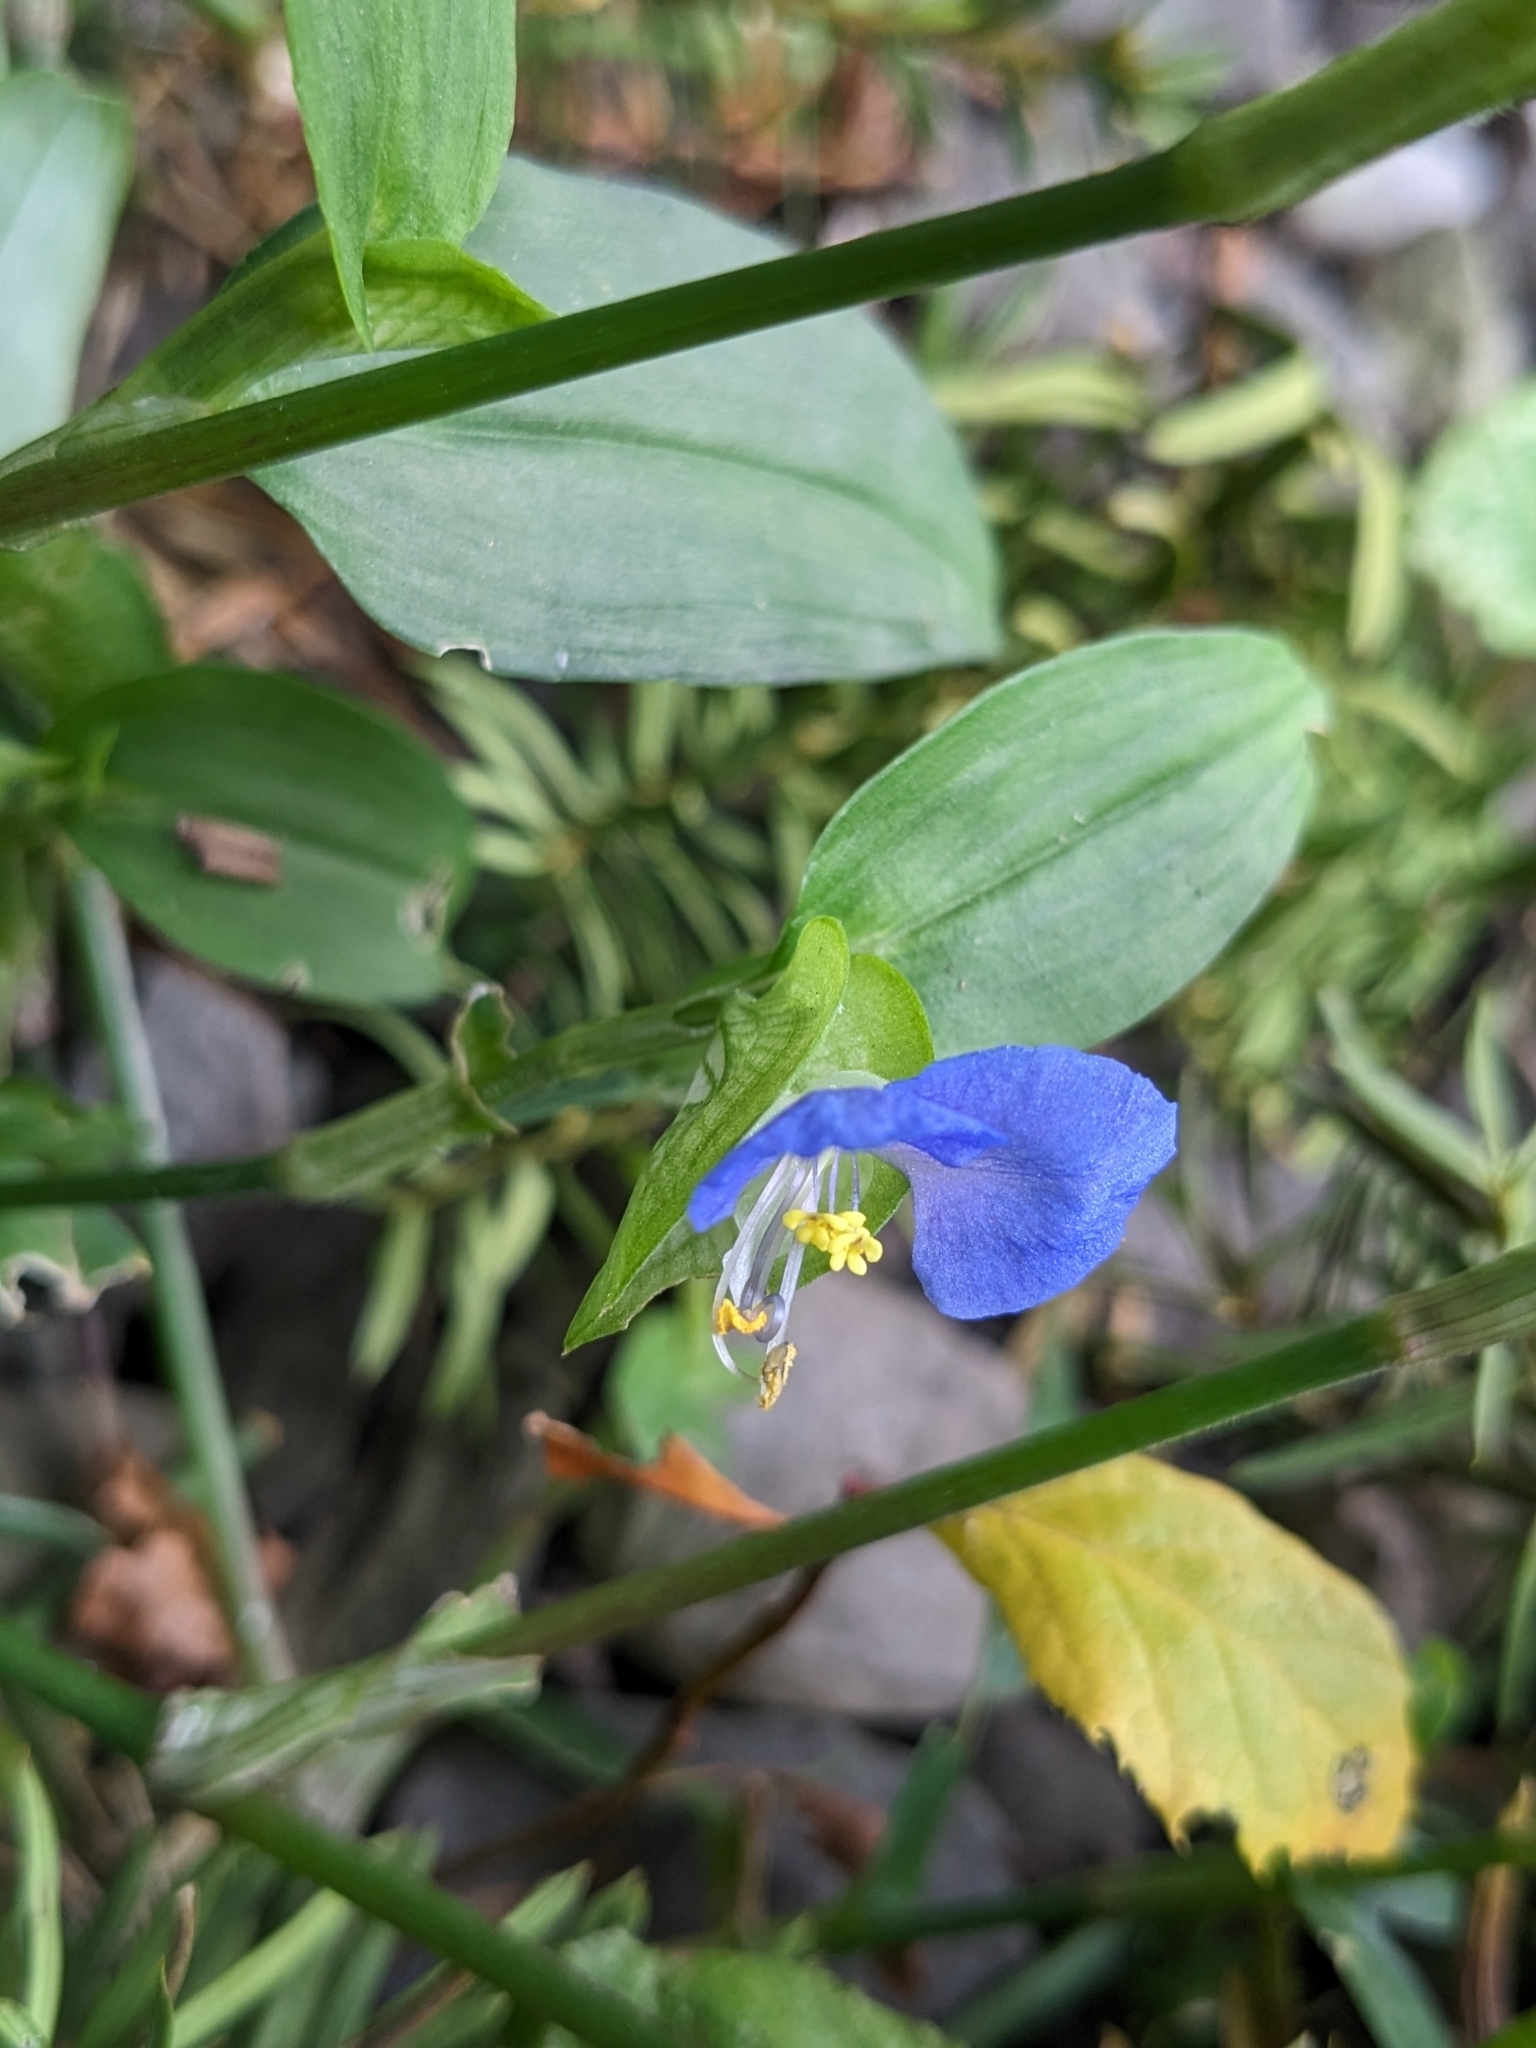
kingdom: Plantae
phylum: Tracheophyta
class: Liliopsida
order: Commelinales
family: Commelinaceae
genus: Commelina
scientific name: Commelina communis
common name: Asiatic dayflower
